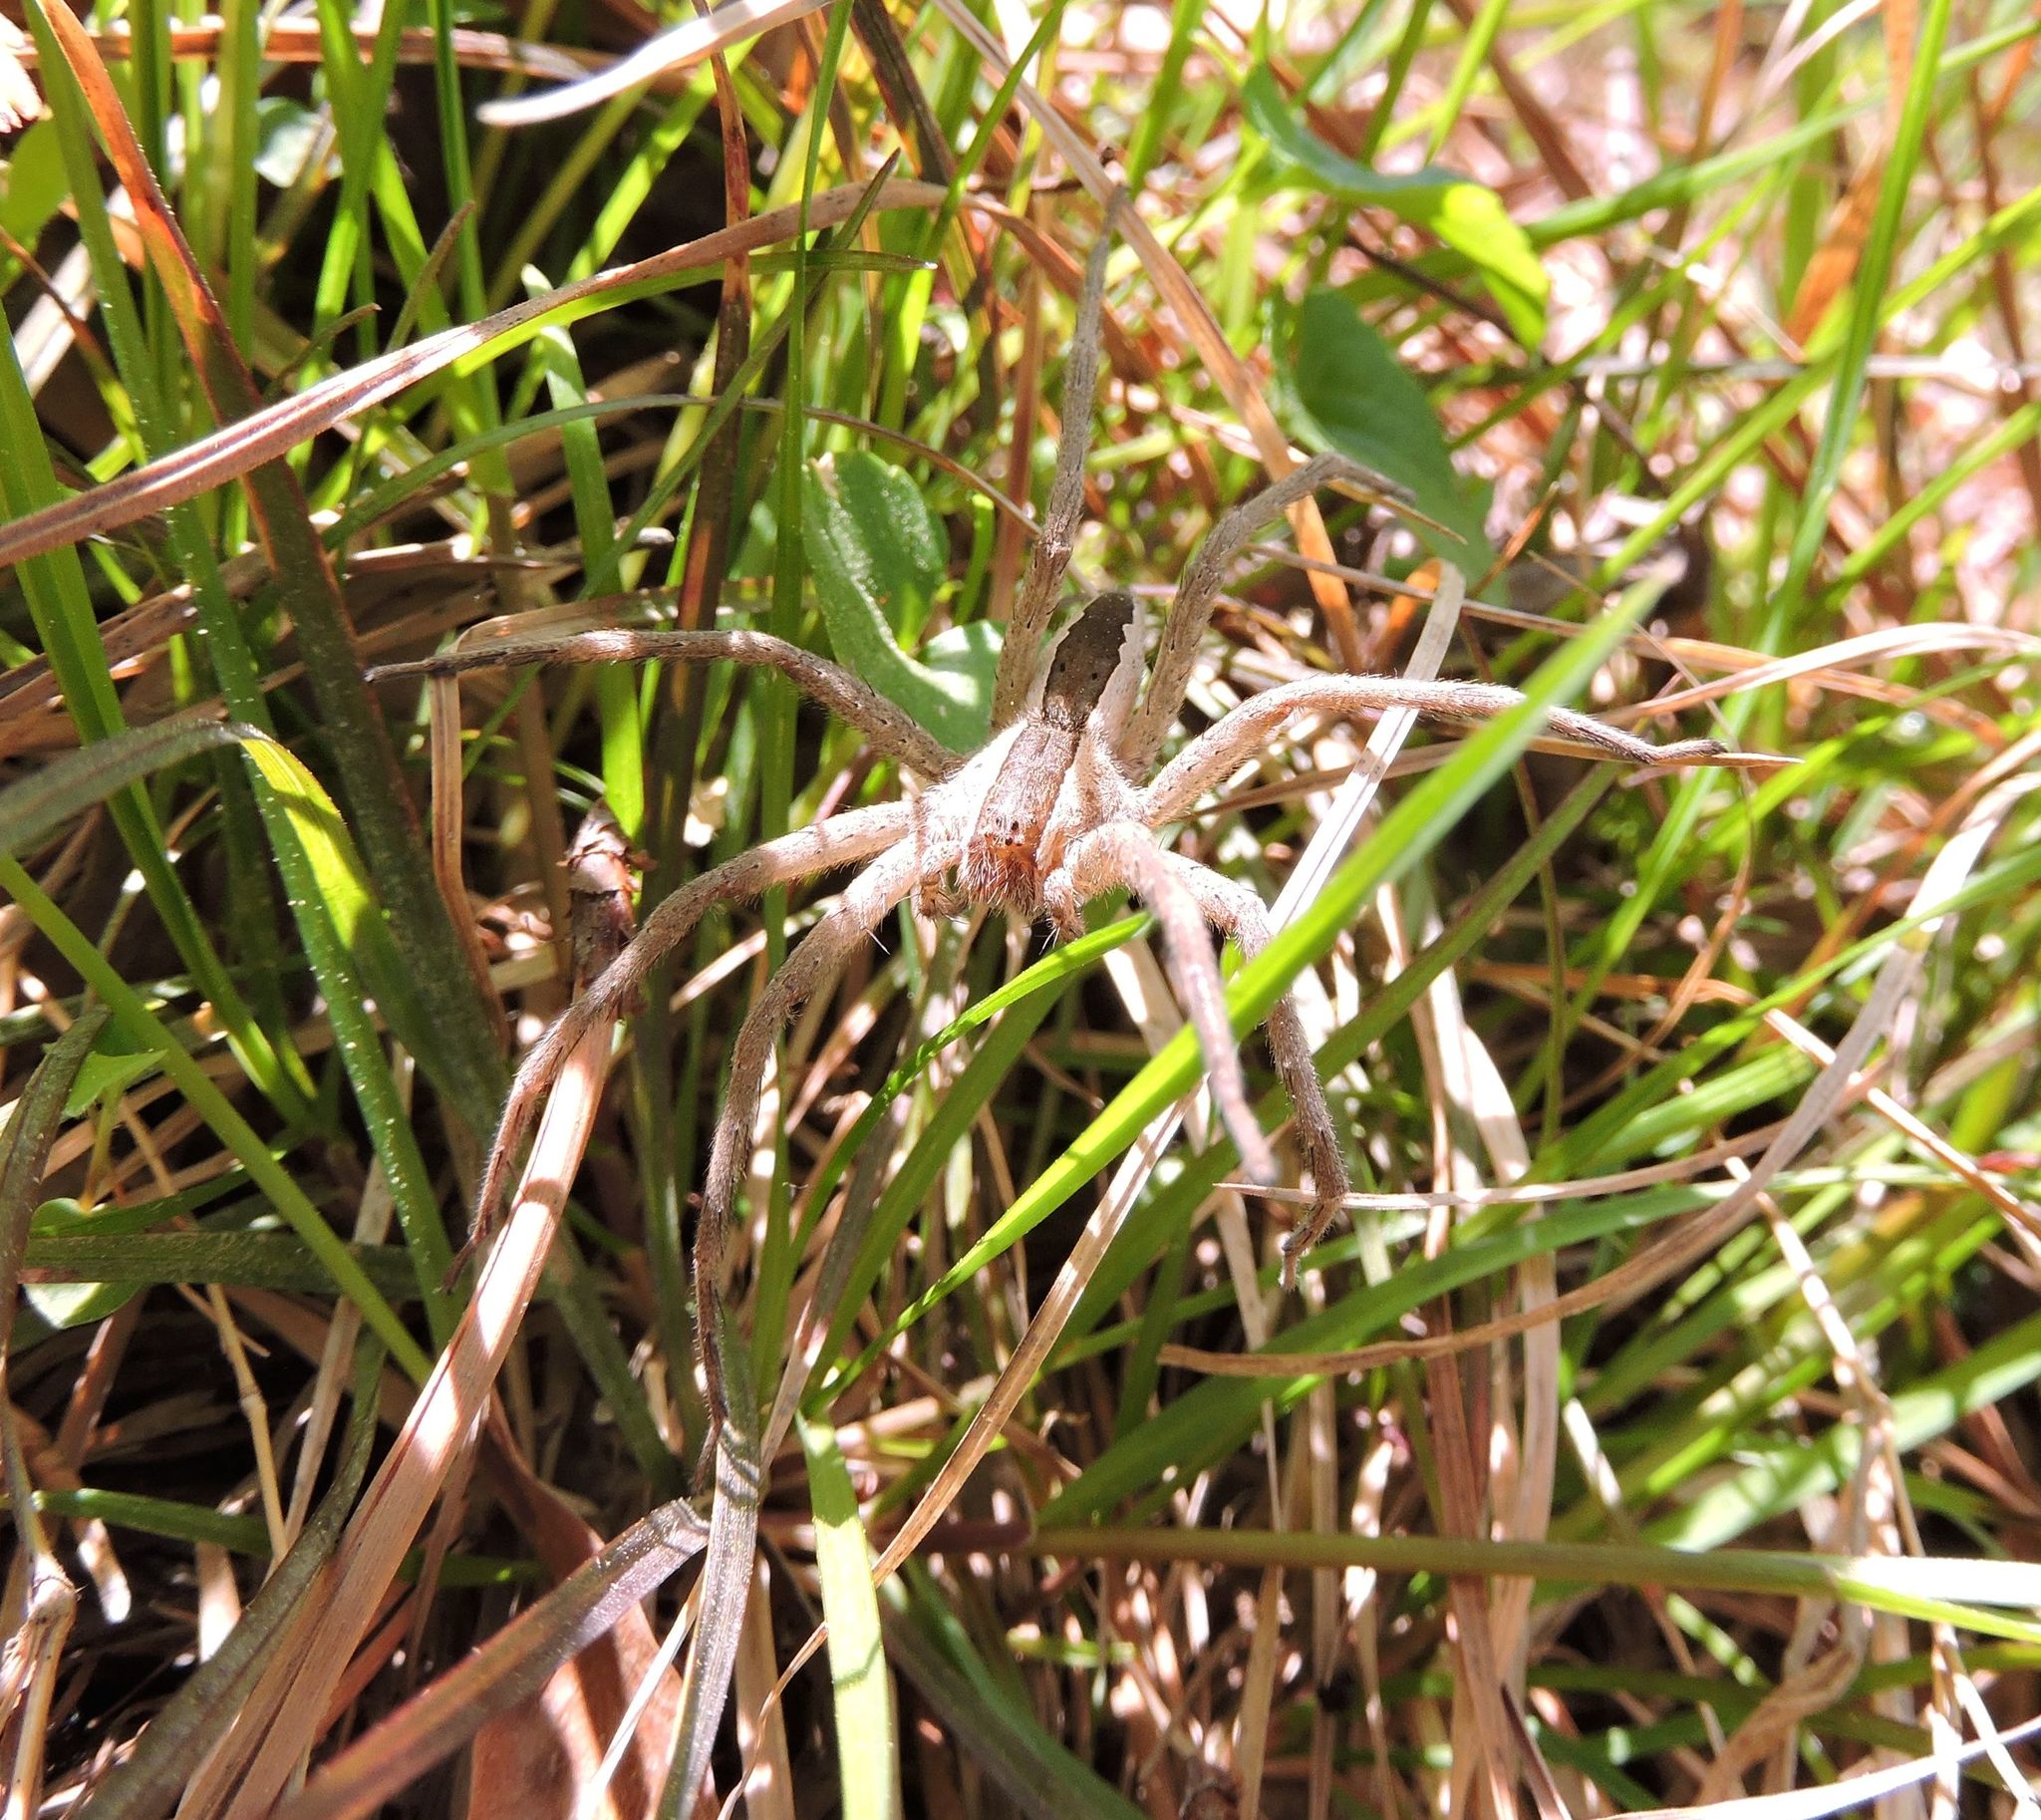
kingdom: Animalia
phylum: Arthropoda
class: Arachnida
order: Araneae
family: Pisauridae
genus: Pisaurina
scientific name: Pisaurina mira
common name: American nursery web spider
